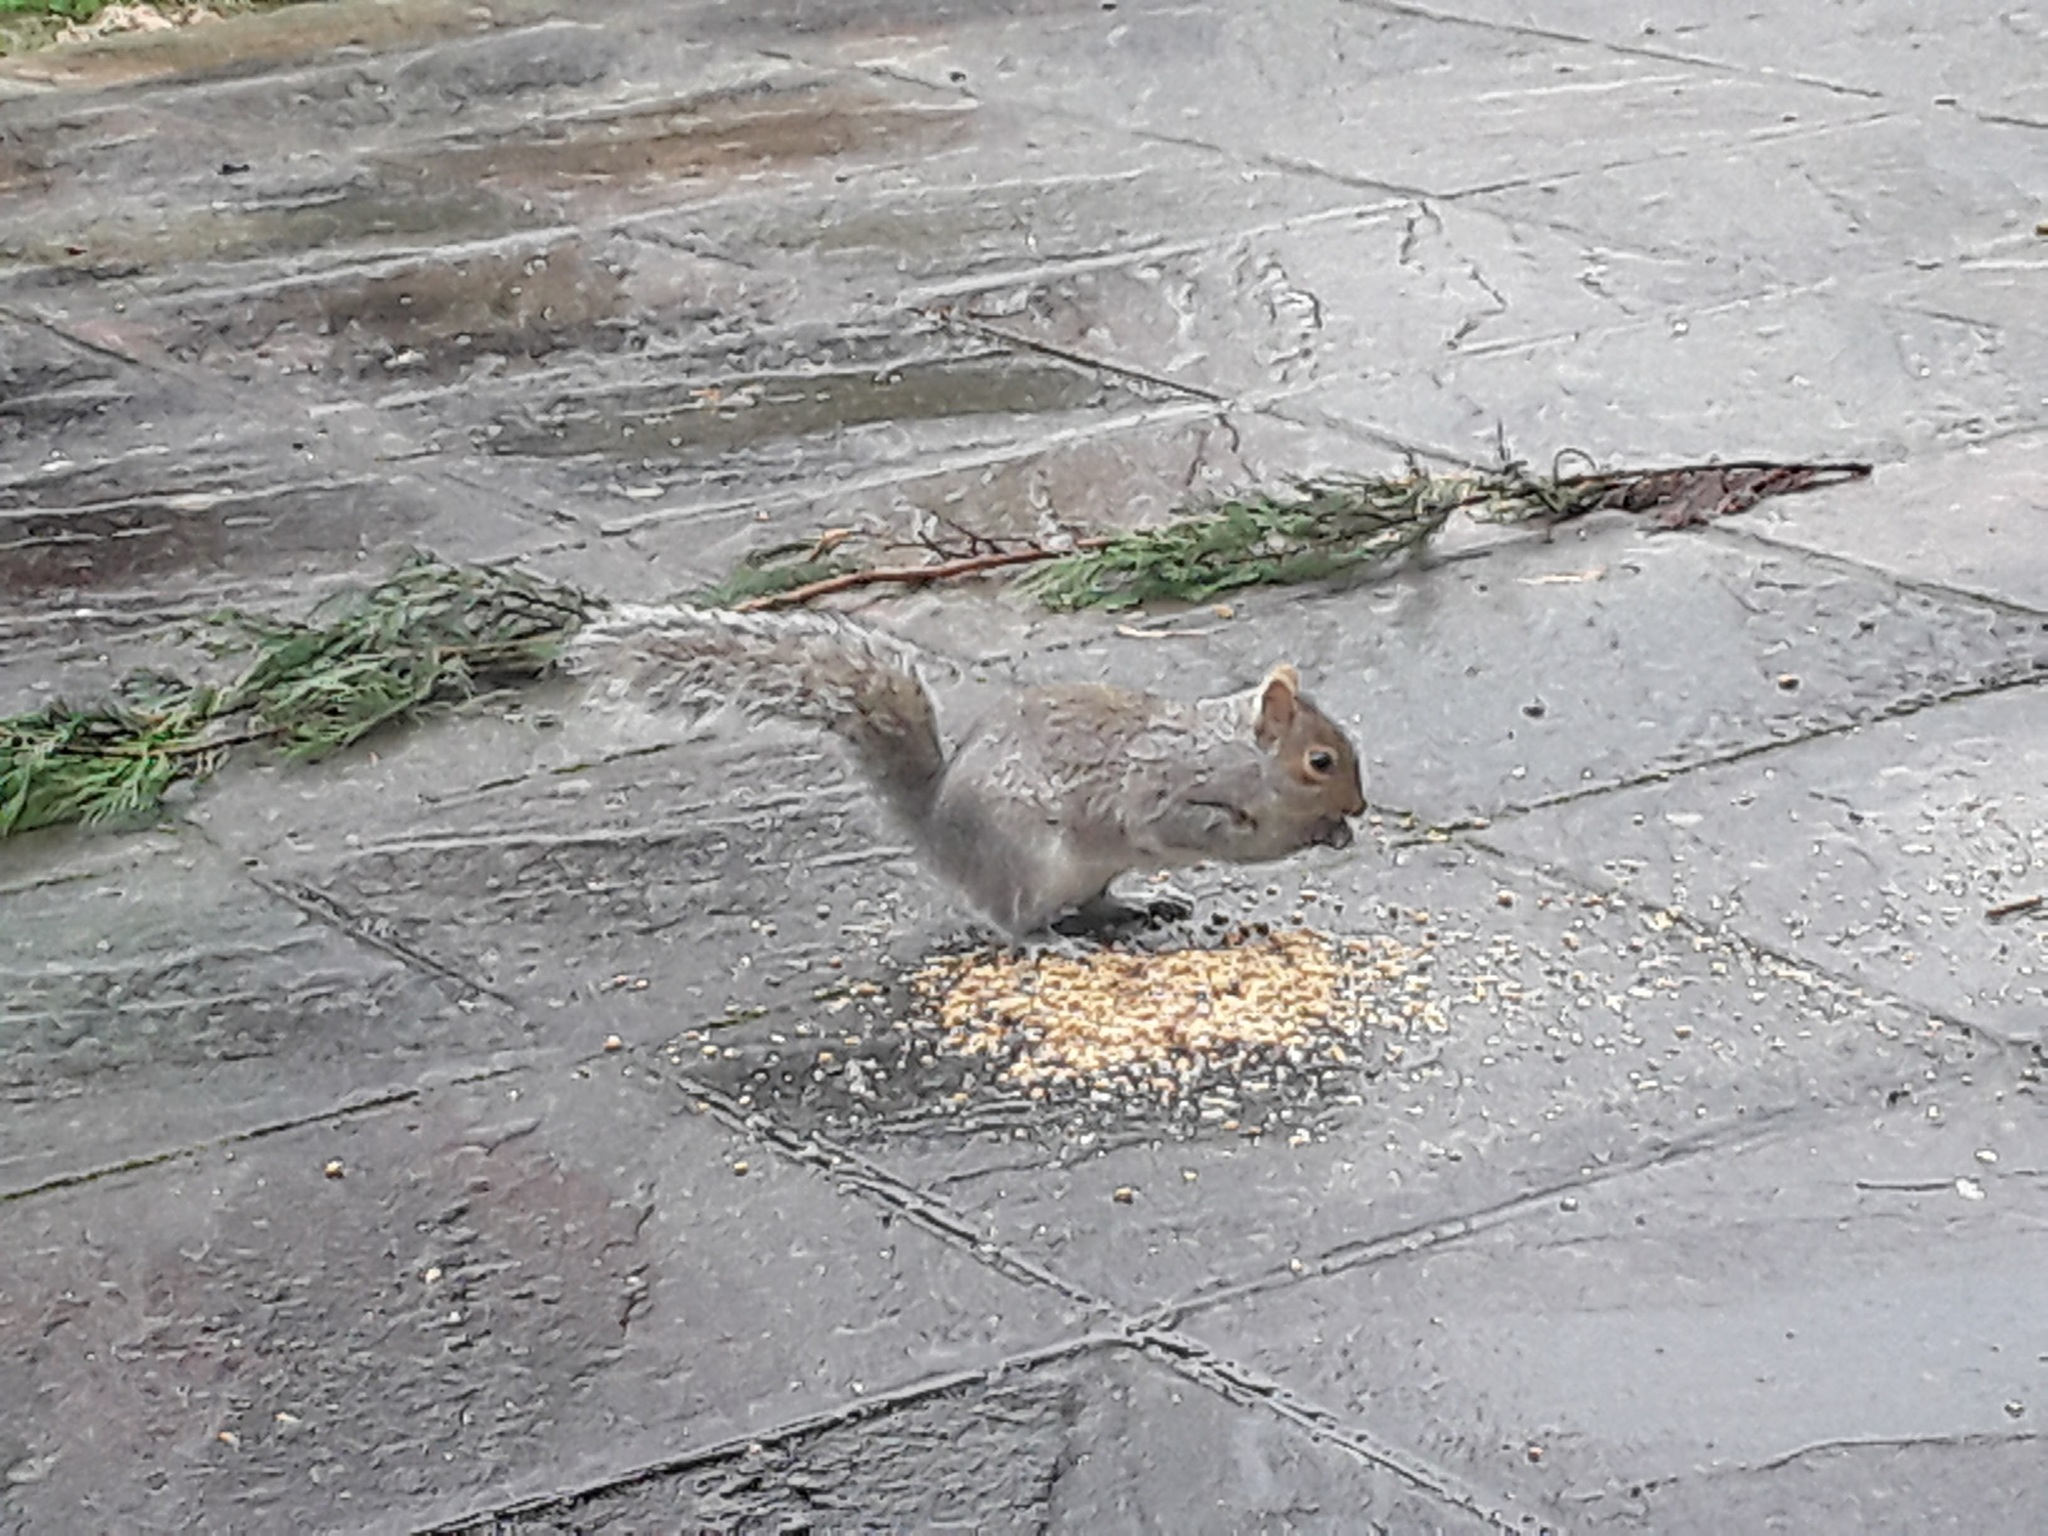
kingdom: Animalia
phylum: Chordata
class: Mammalia
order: Rodentia
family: Sciuridae
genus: Sciurus
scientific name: Sciurus carolinensis
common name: Eastern gray squirrel
